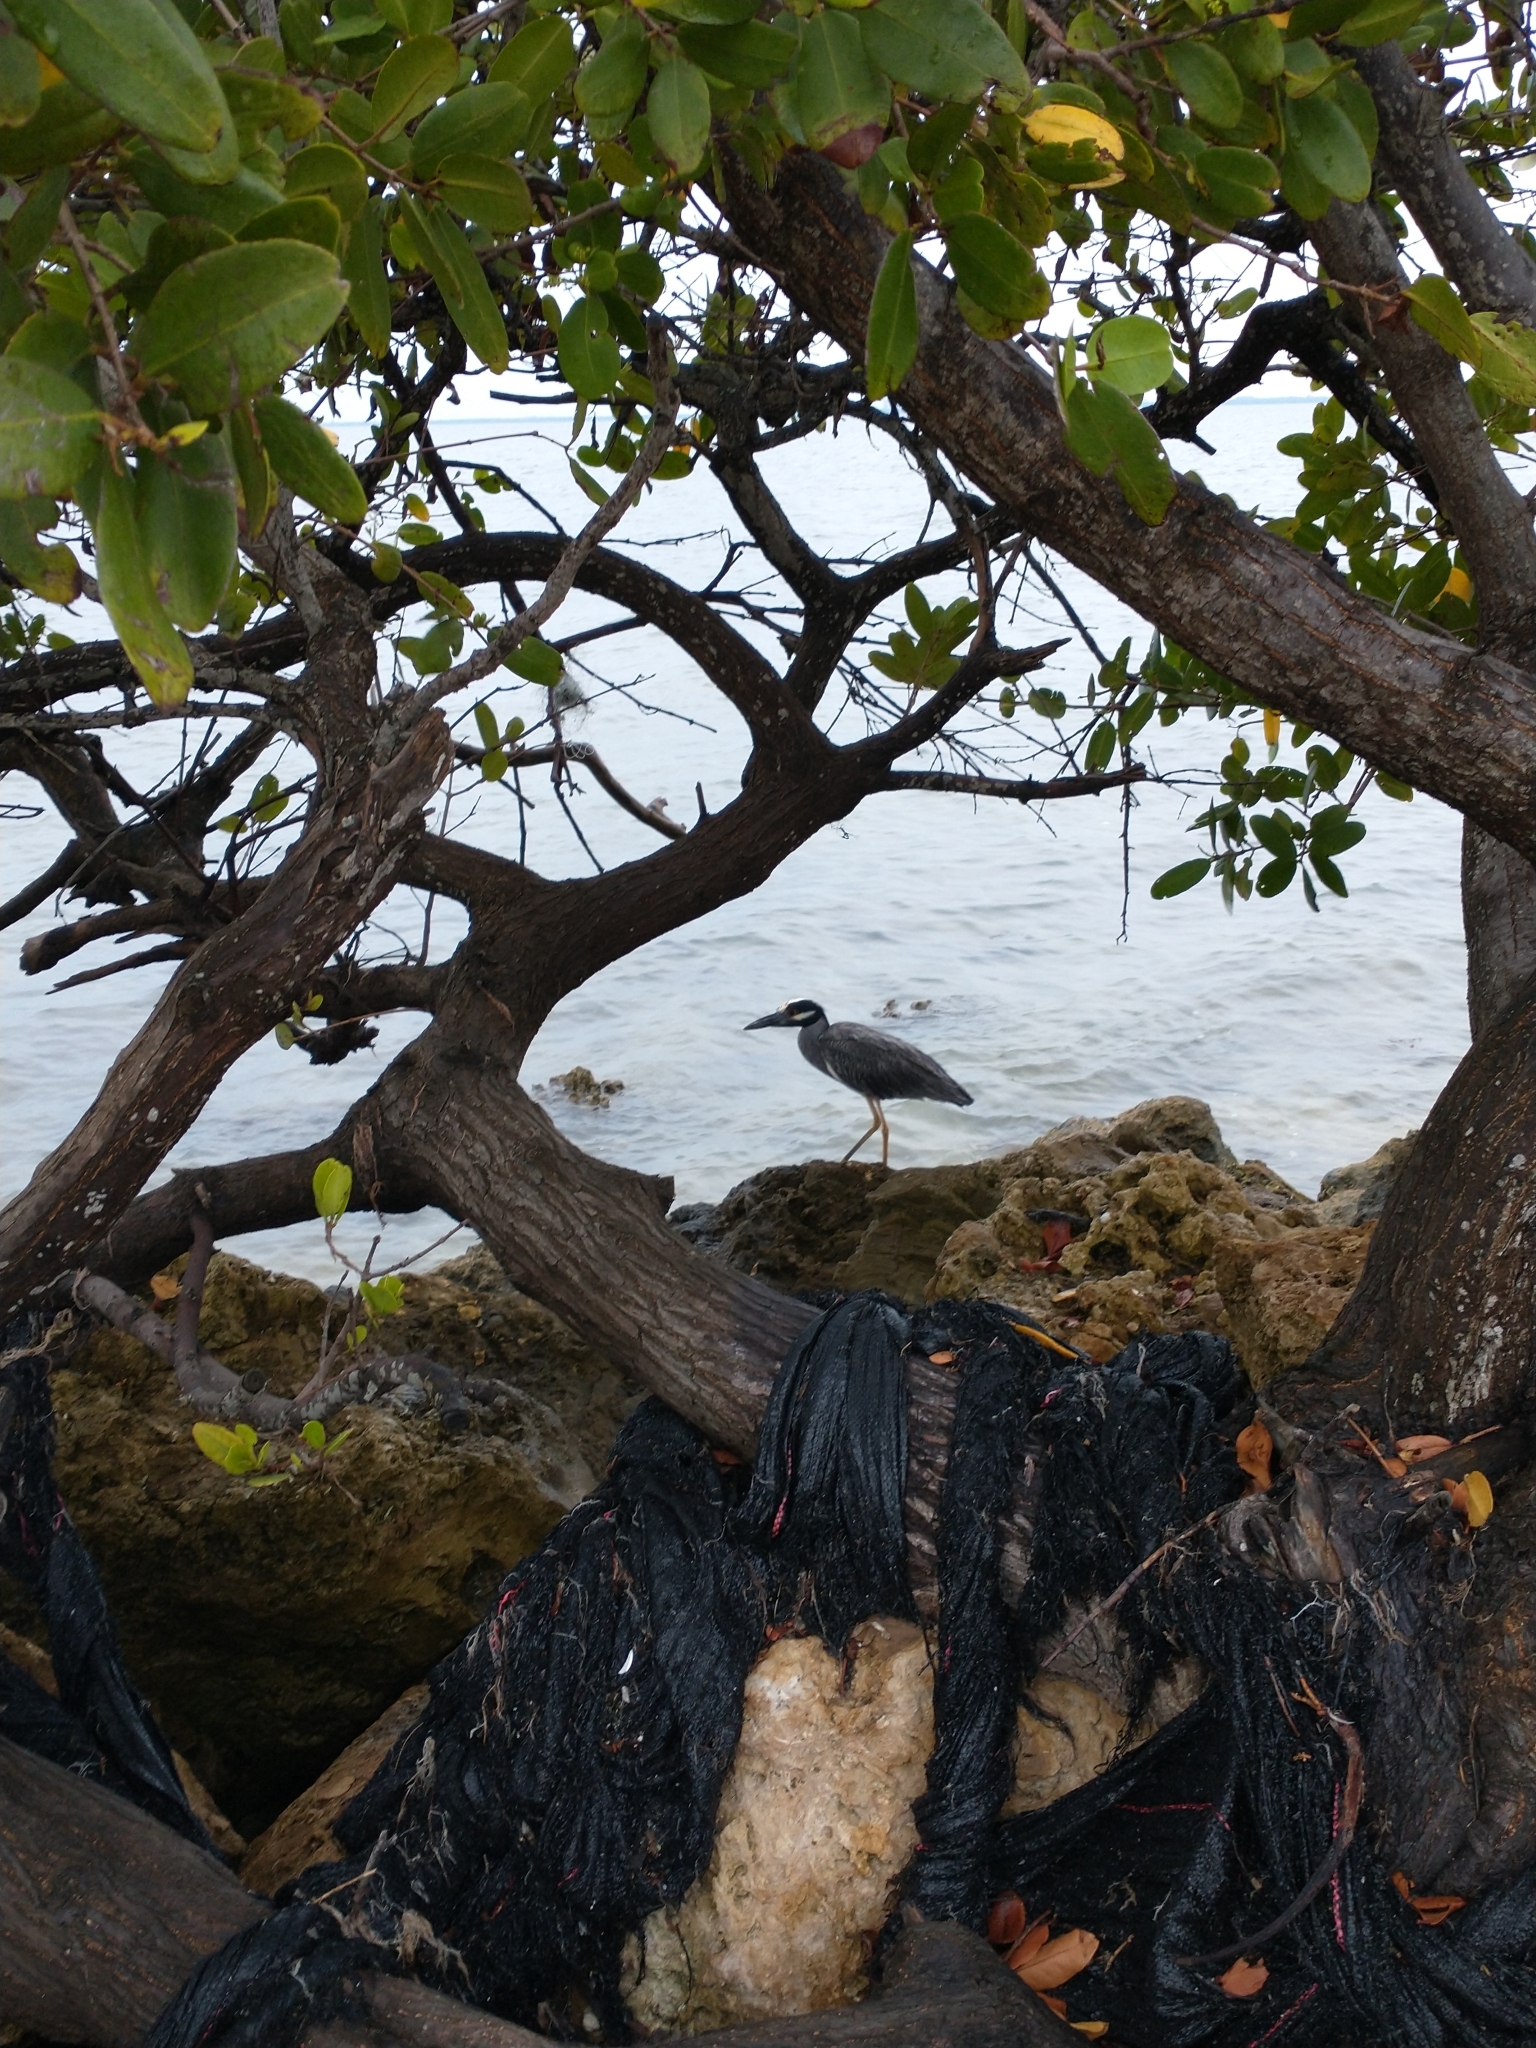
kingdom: Animalia
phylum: Chordata
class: Aves
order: Pelecaniformes
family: Ardeidae
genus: Nyctanassa
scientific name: Nyctanassa violacea
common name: Yellow-crowned night heron
